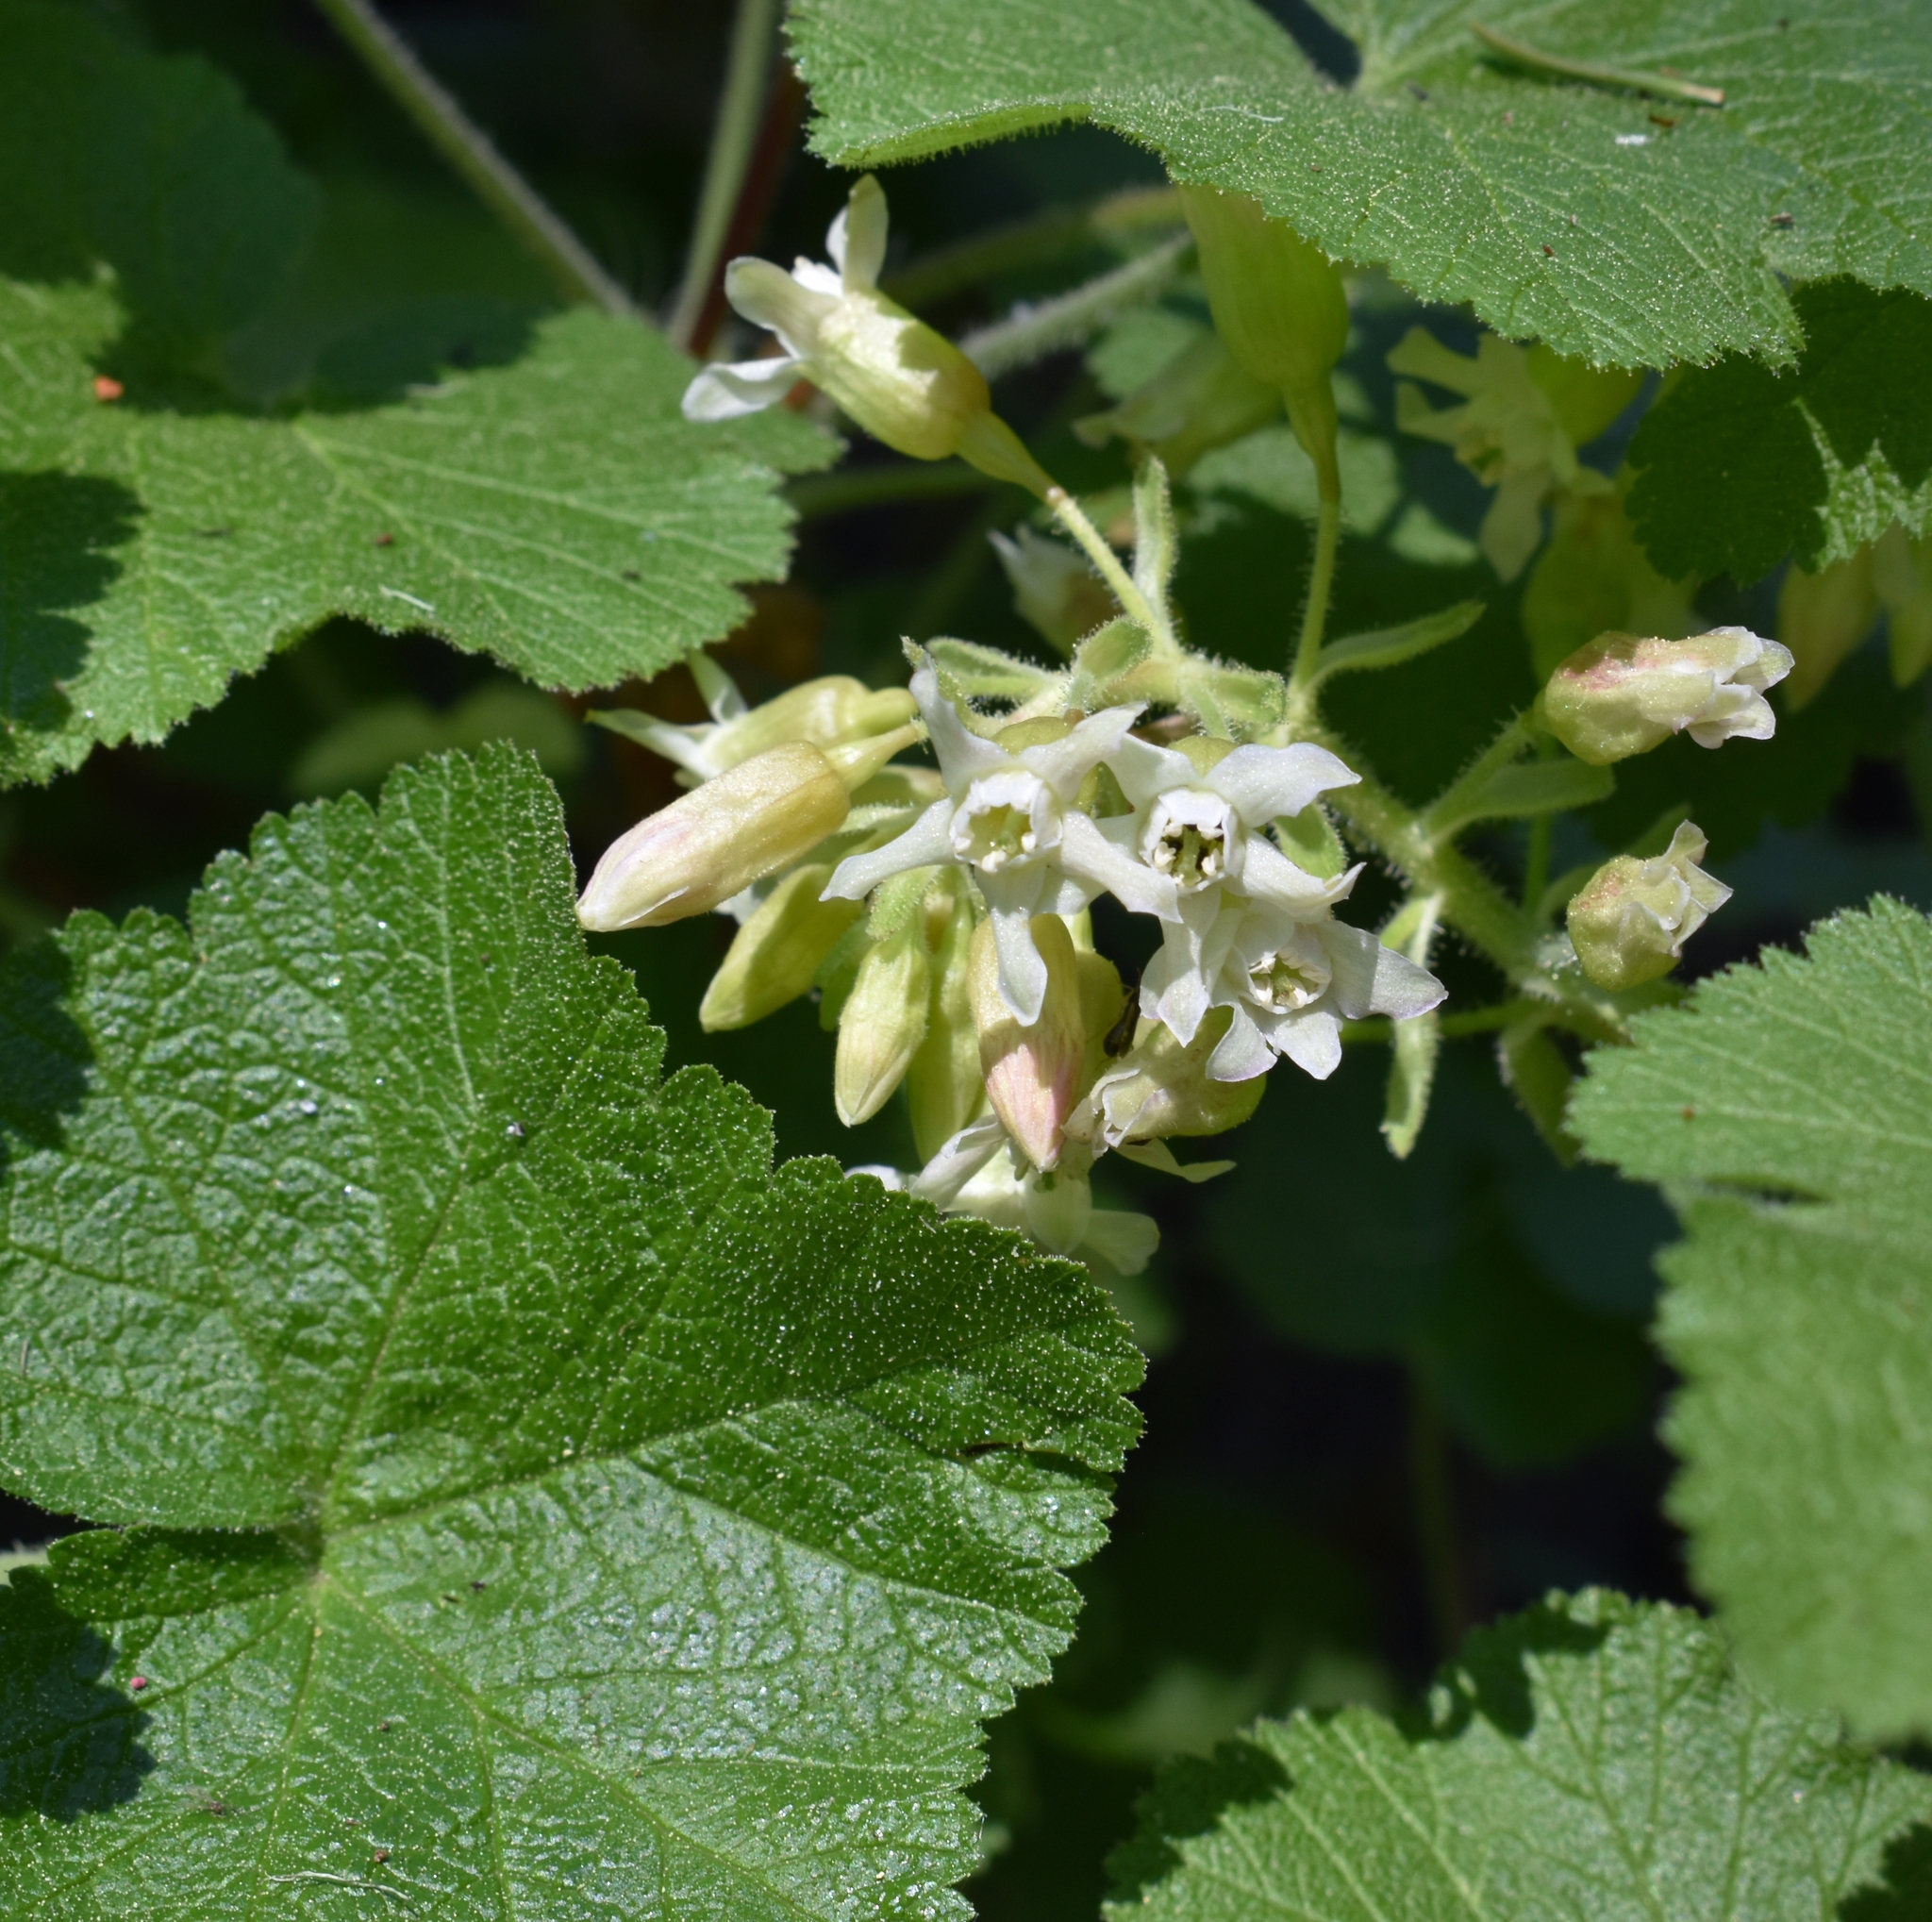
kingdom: Plantae
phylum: Tracheophyta
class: Magnoliopsida
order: Saxifragales
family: Grossulariaceae
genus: Ribes
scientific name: Ribes viscosissimum
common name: Sticky currant
